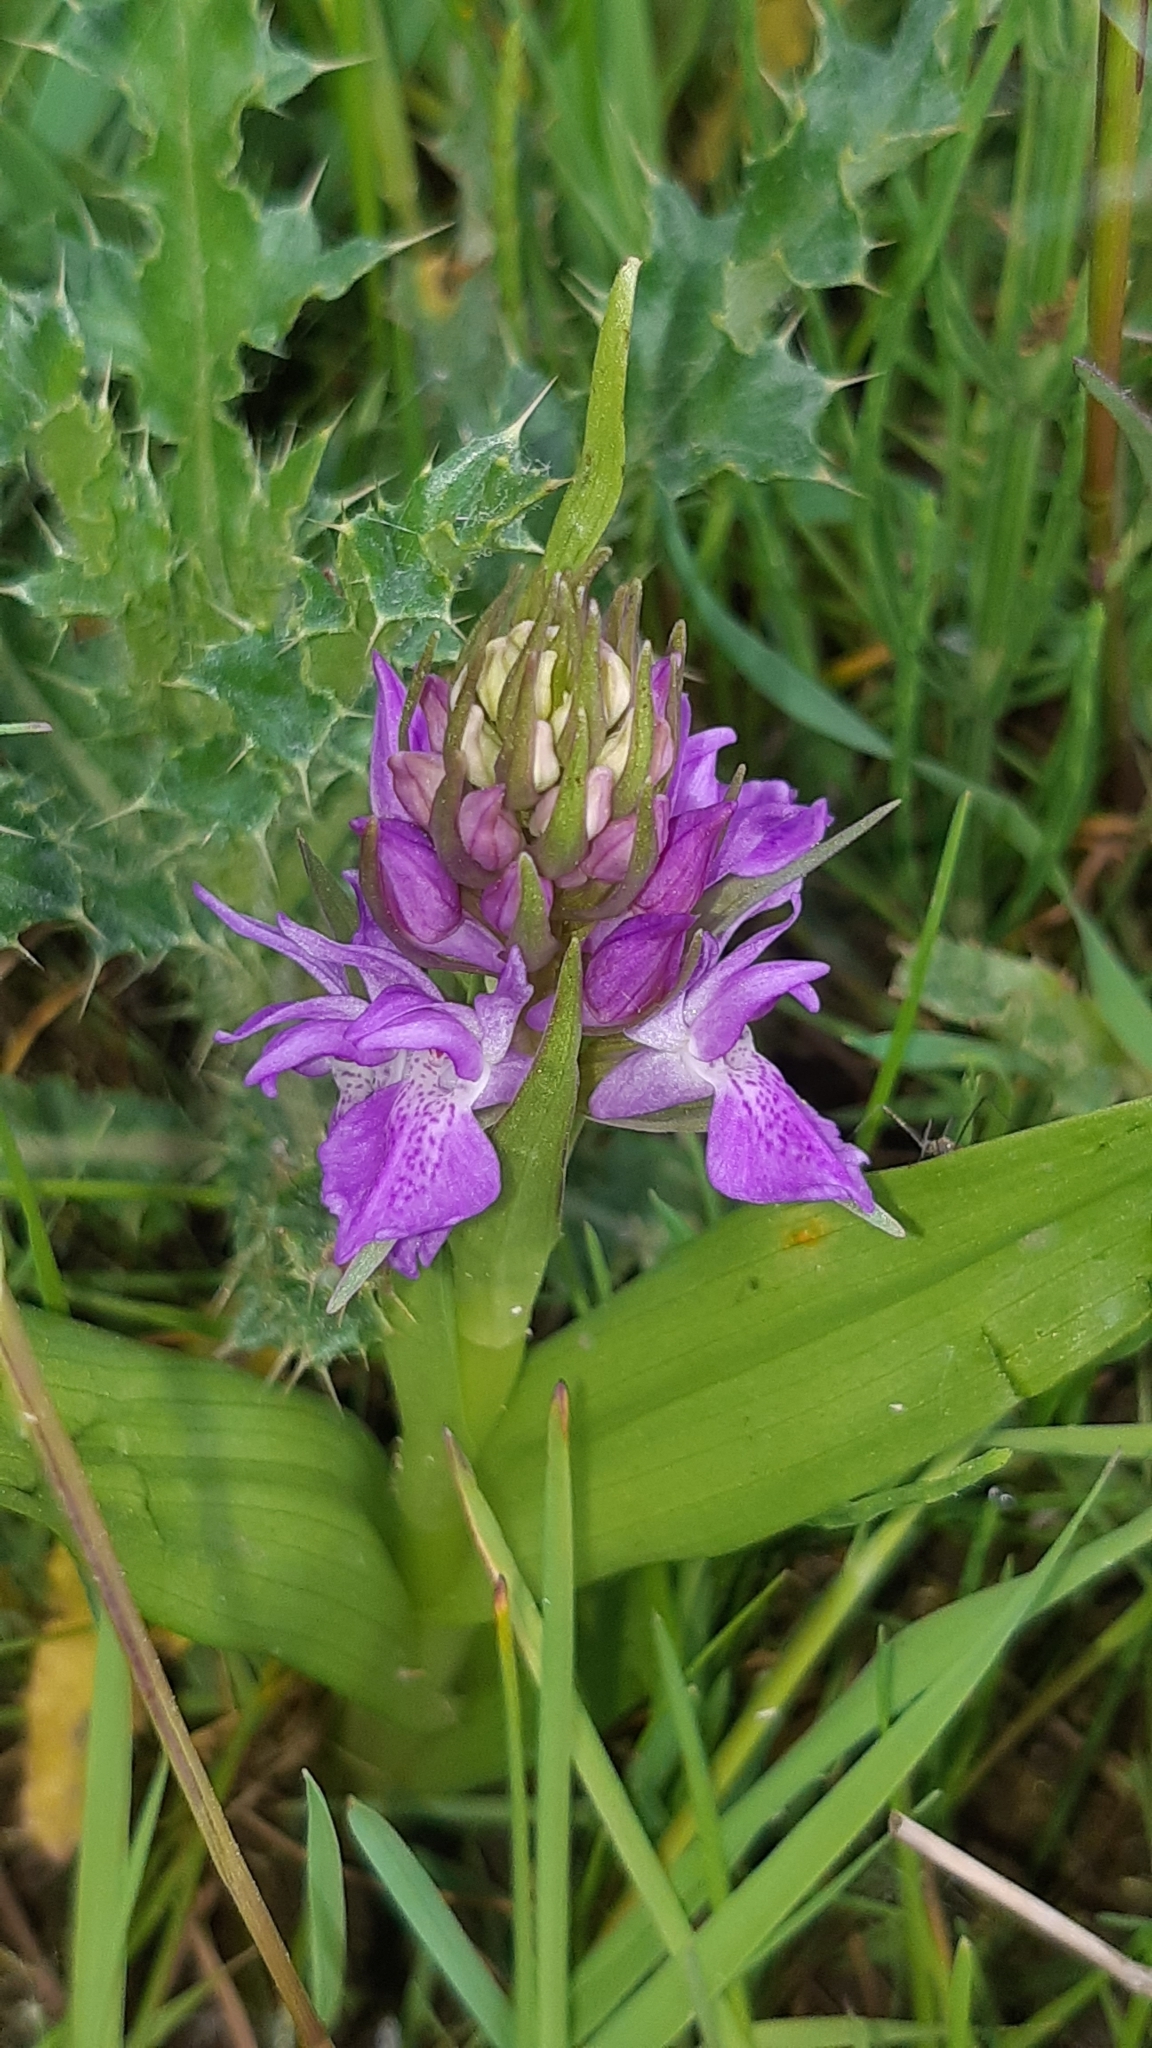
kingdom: Plantae
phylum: Tracheophyta
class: Liliopsida
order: Asparagales
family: Orchidaceae
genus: Dactylorhiza
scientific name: Dactylorhiza majalis
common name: Marsh orchid
